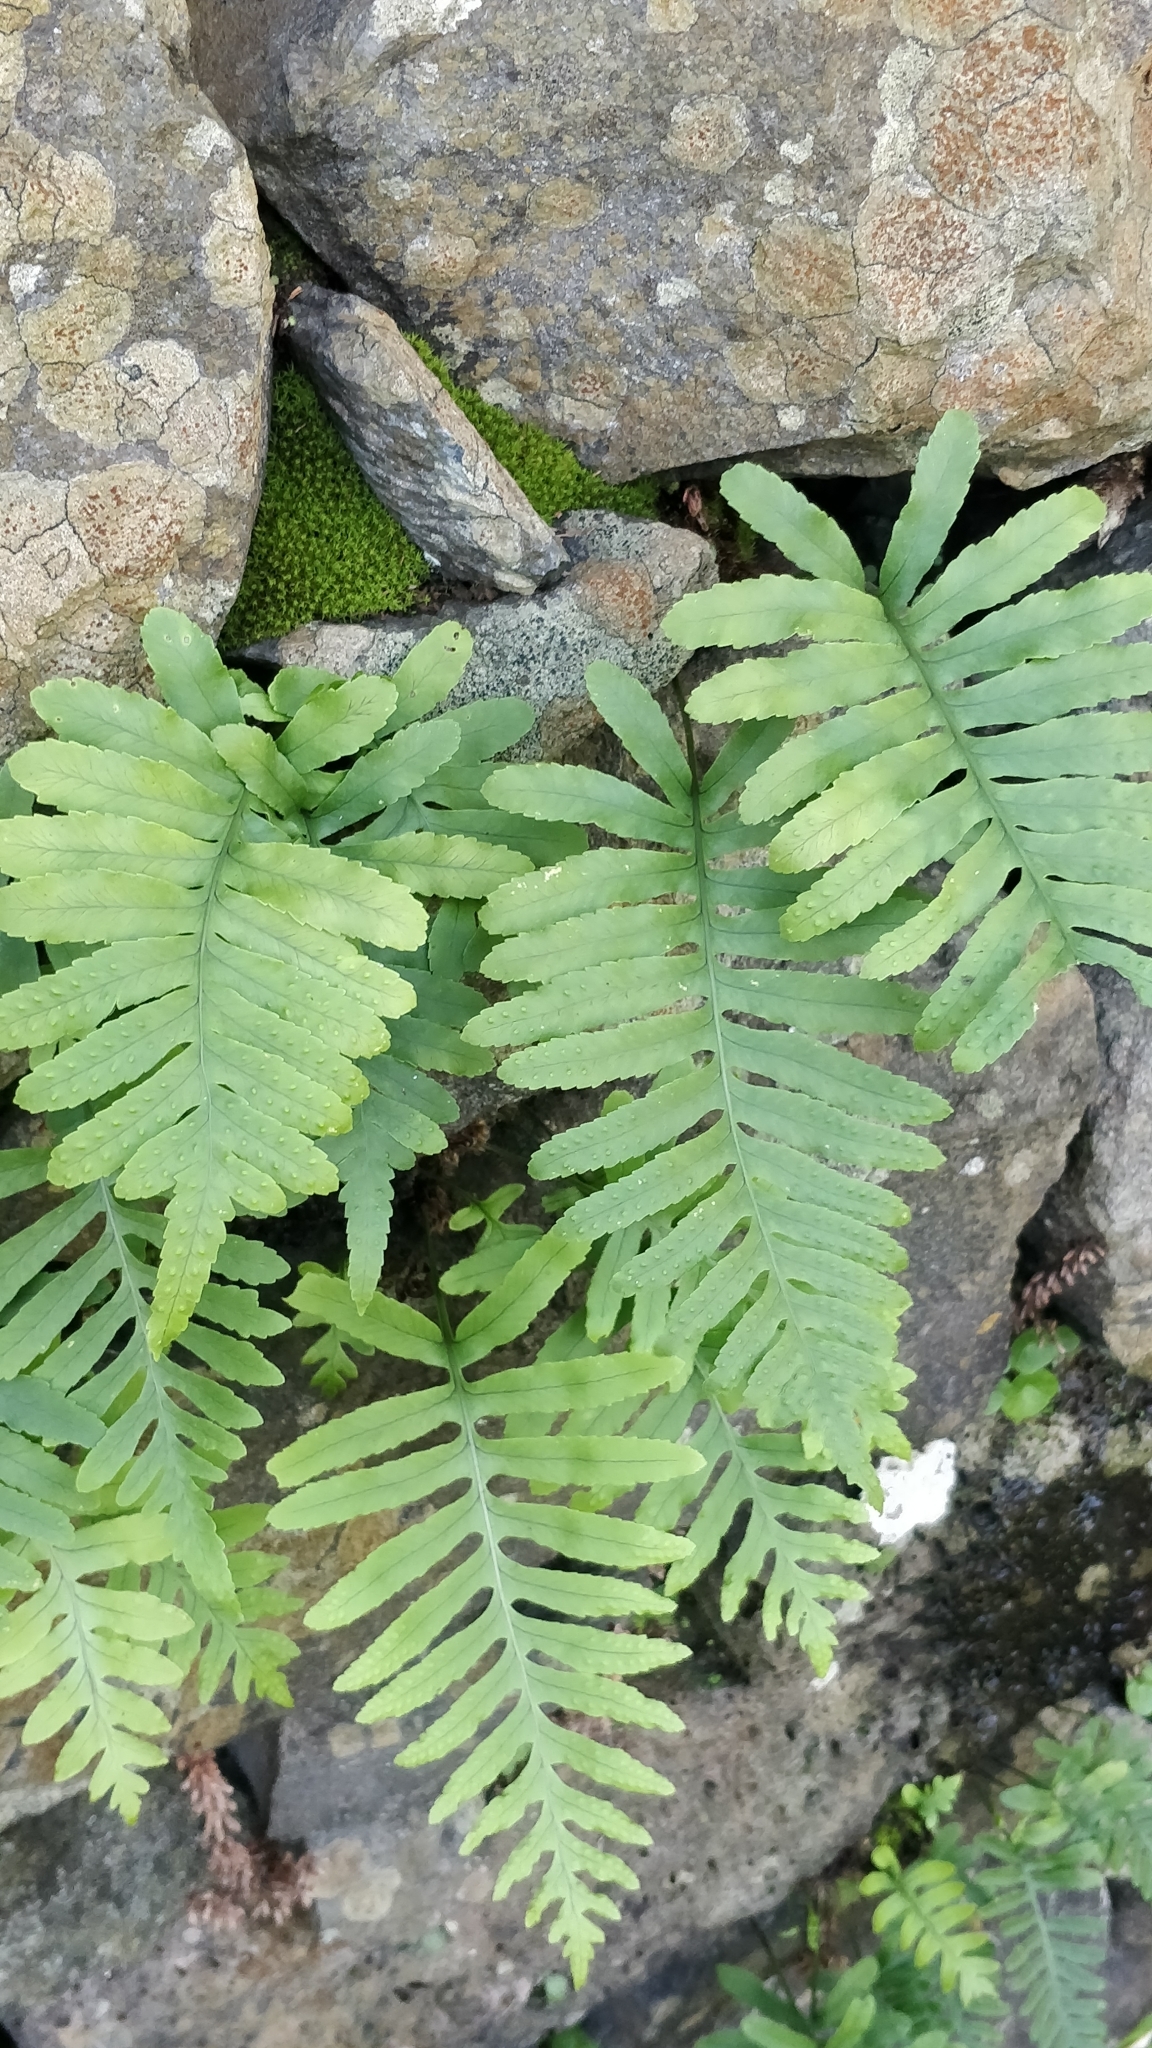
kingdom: Plantae
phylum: Tracheophyta
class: Polypodiopsida
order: Polypodiales
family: Polypodiaceae
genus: Polypodium
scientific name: Polypodium macaronesicum
